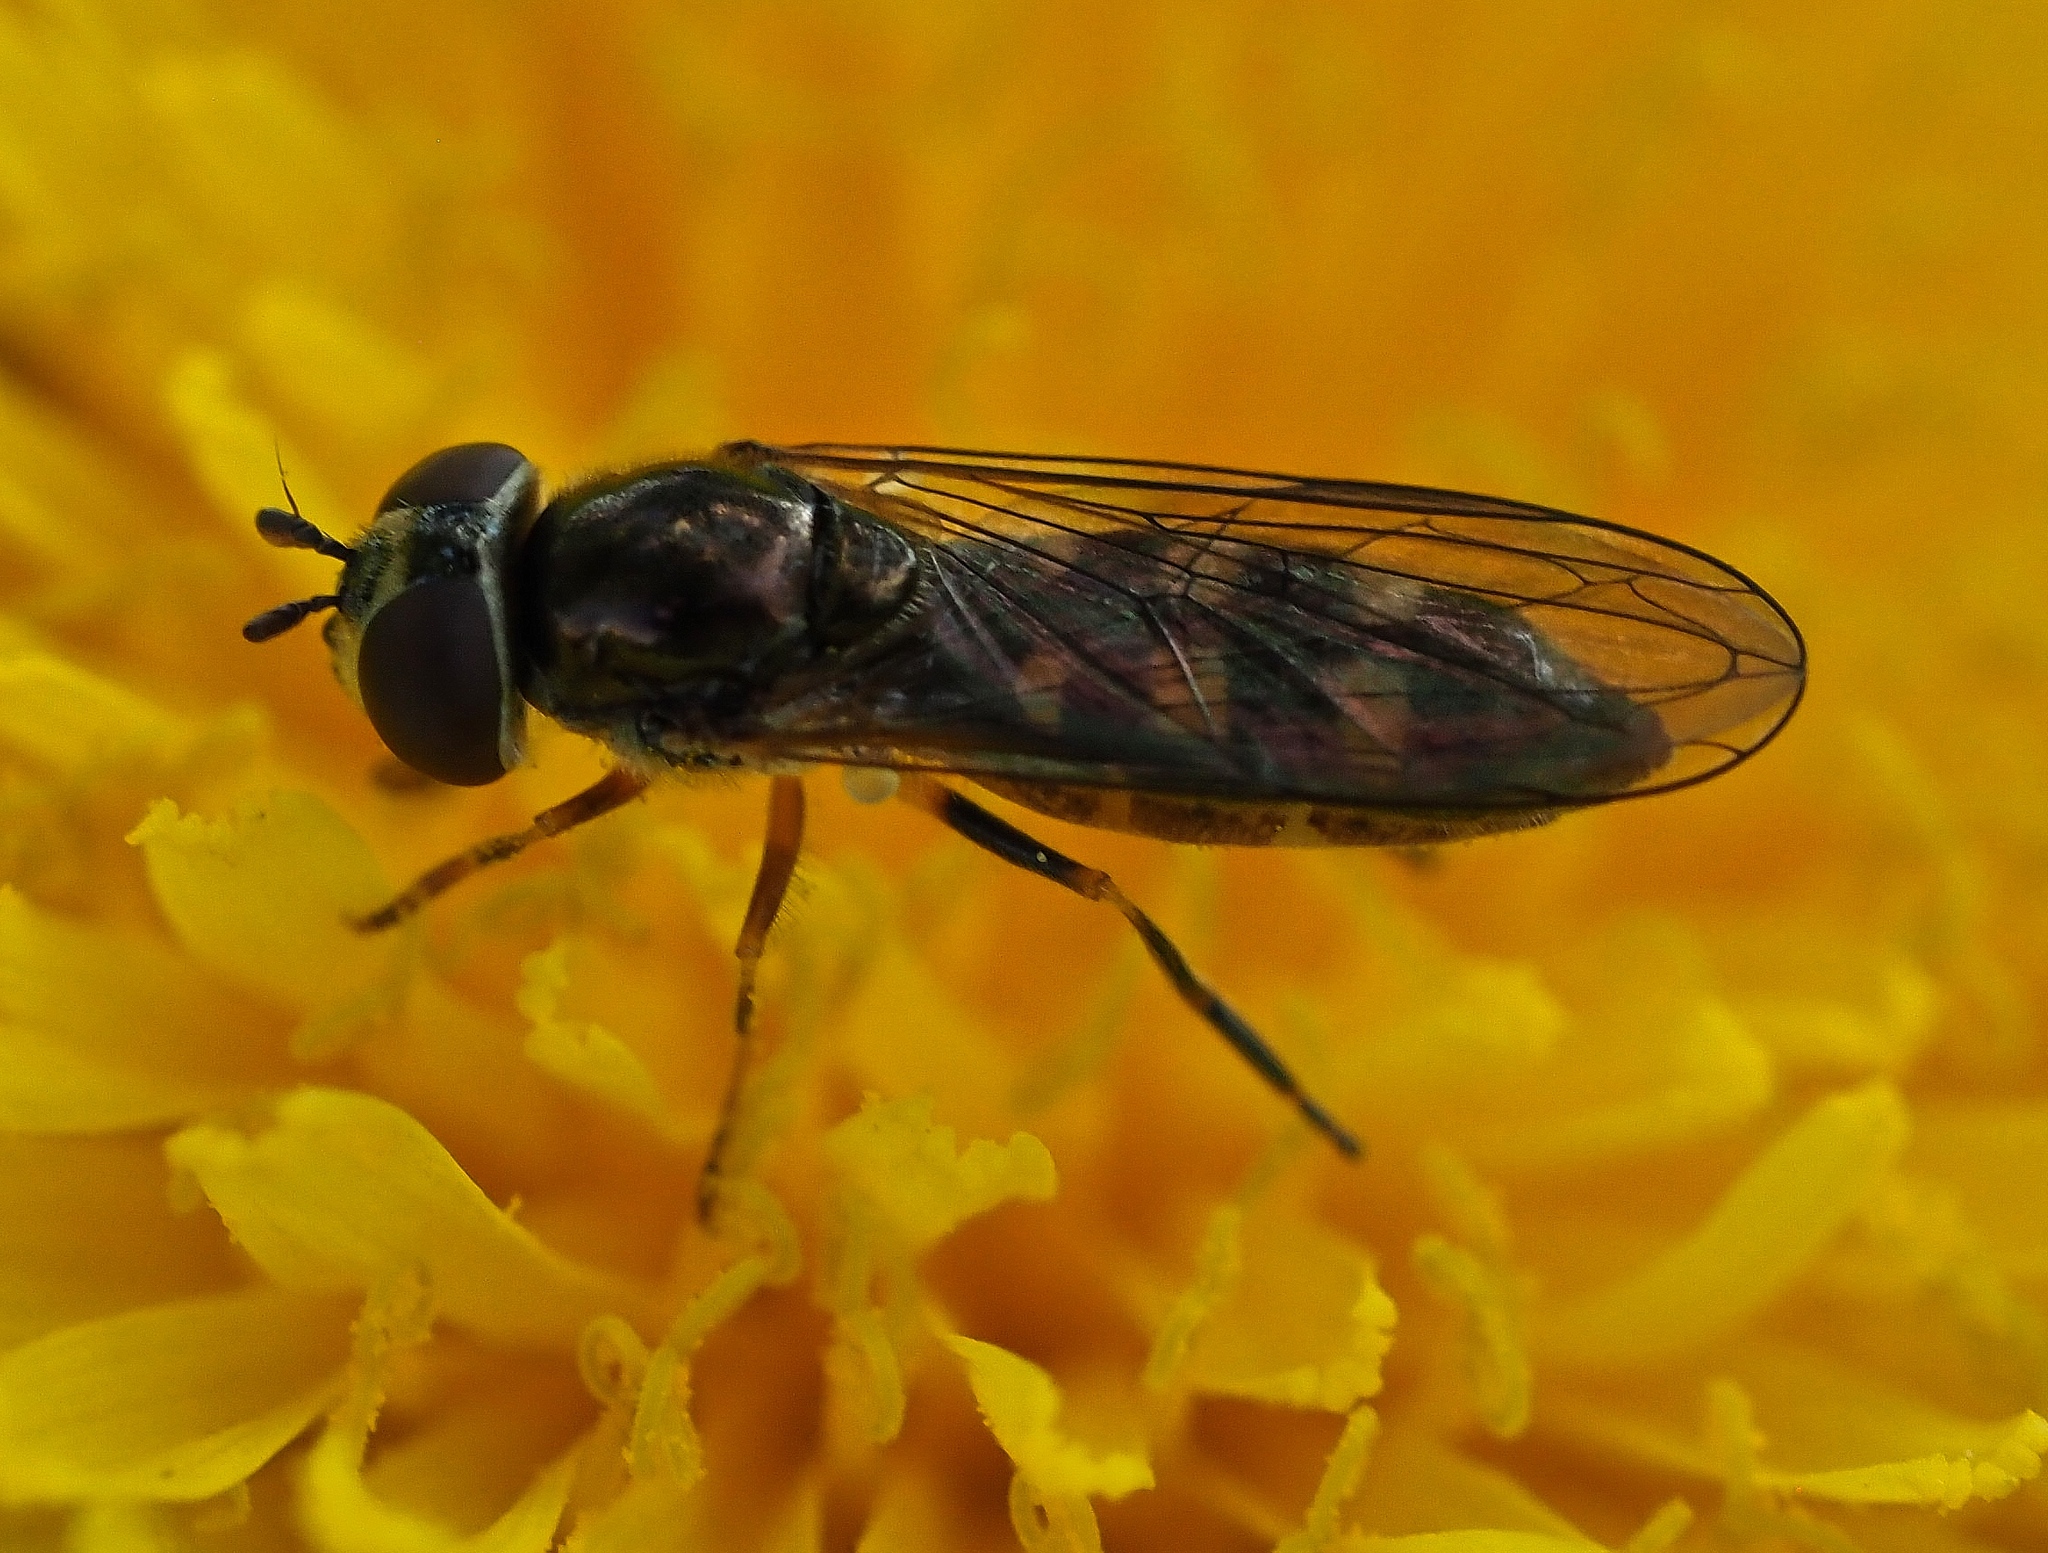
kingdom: Animalia
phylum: Arthropoda
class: Insecta
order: Diptera
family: Syrphidae
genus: Platycheirus
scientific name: Platycheirus
